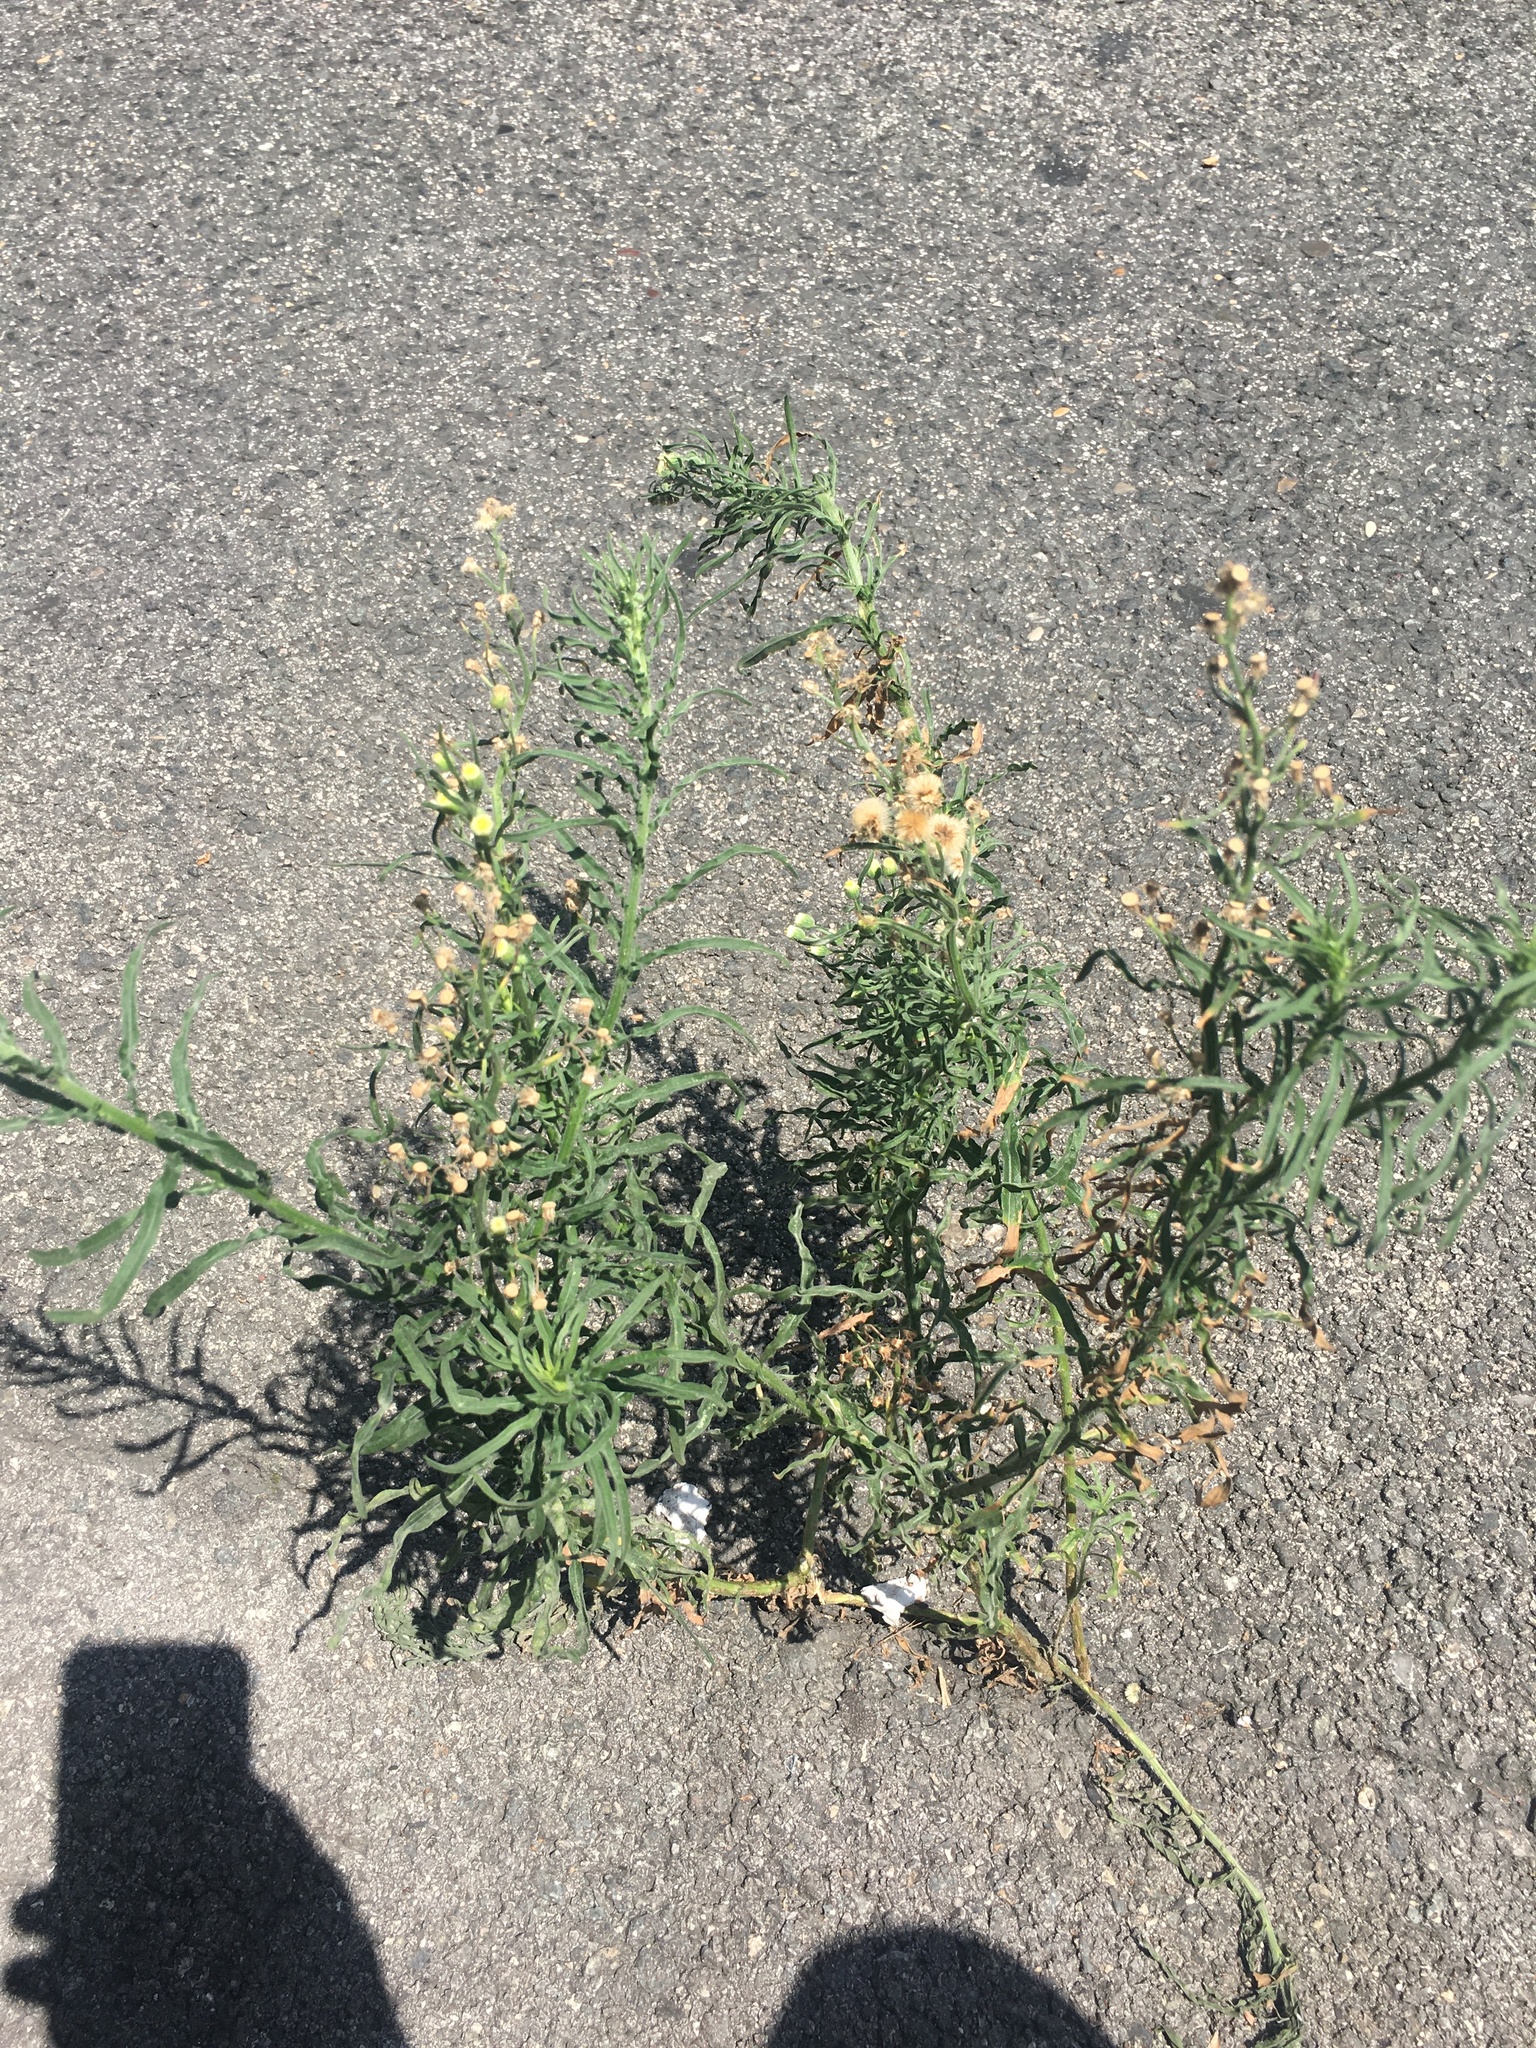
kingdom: Plantae
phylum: Tracheophyta
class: Magnoliopsida
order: Asterales
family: Asteraceae
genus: Erigeron
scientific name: Erigeron bonariensis
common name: Argentine fleabane
